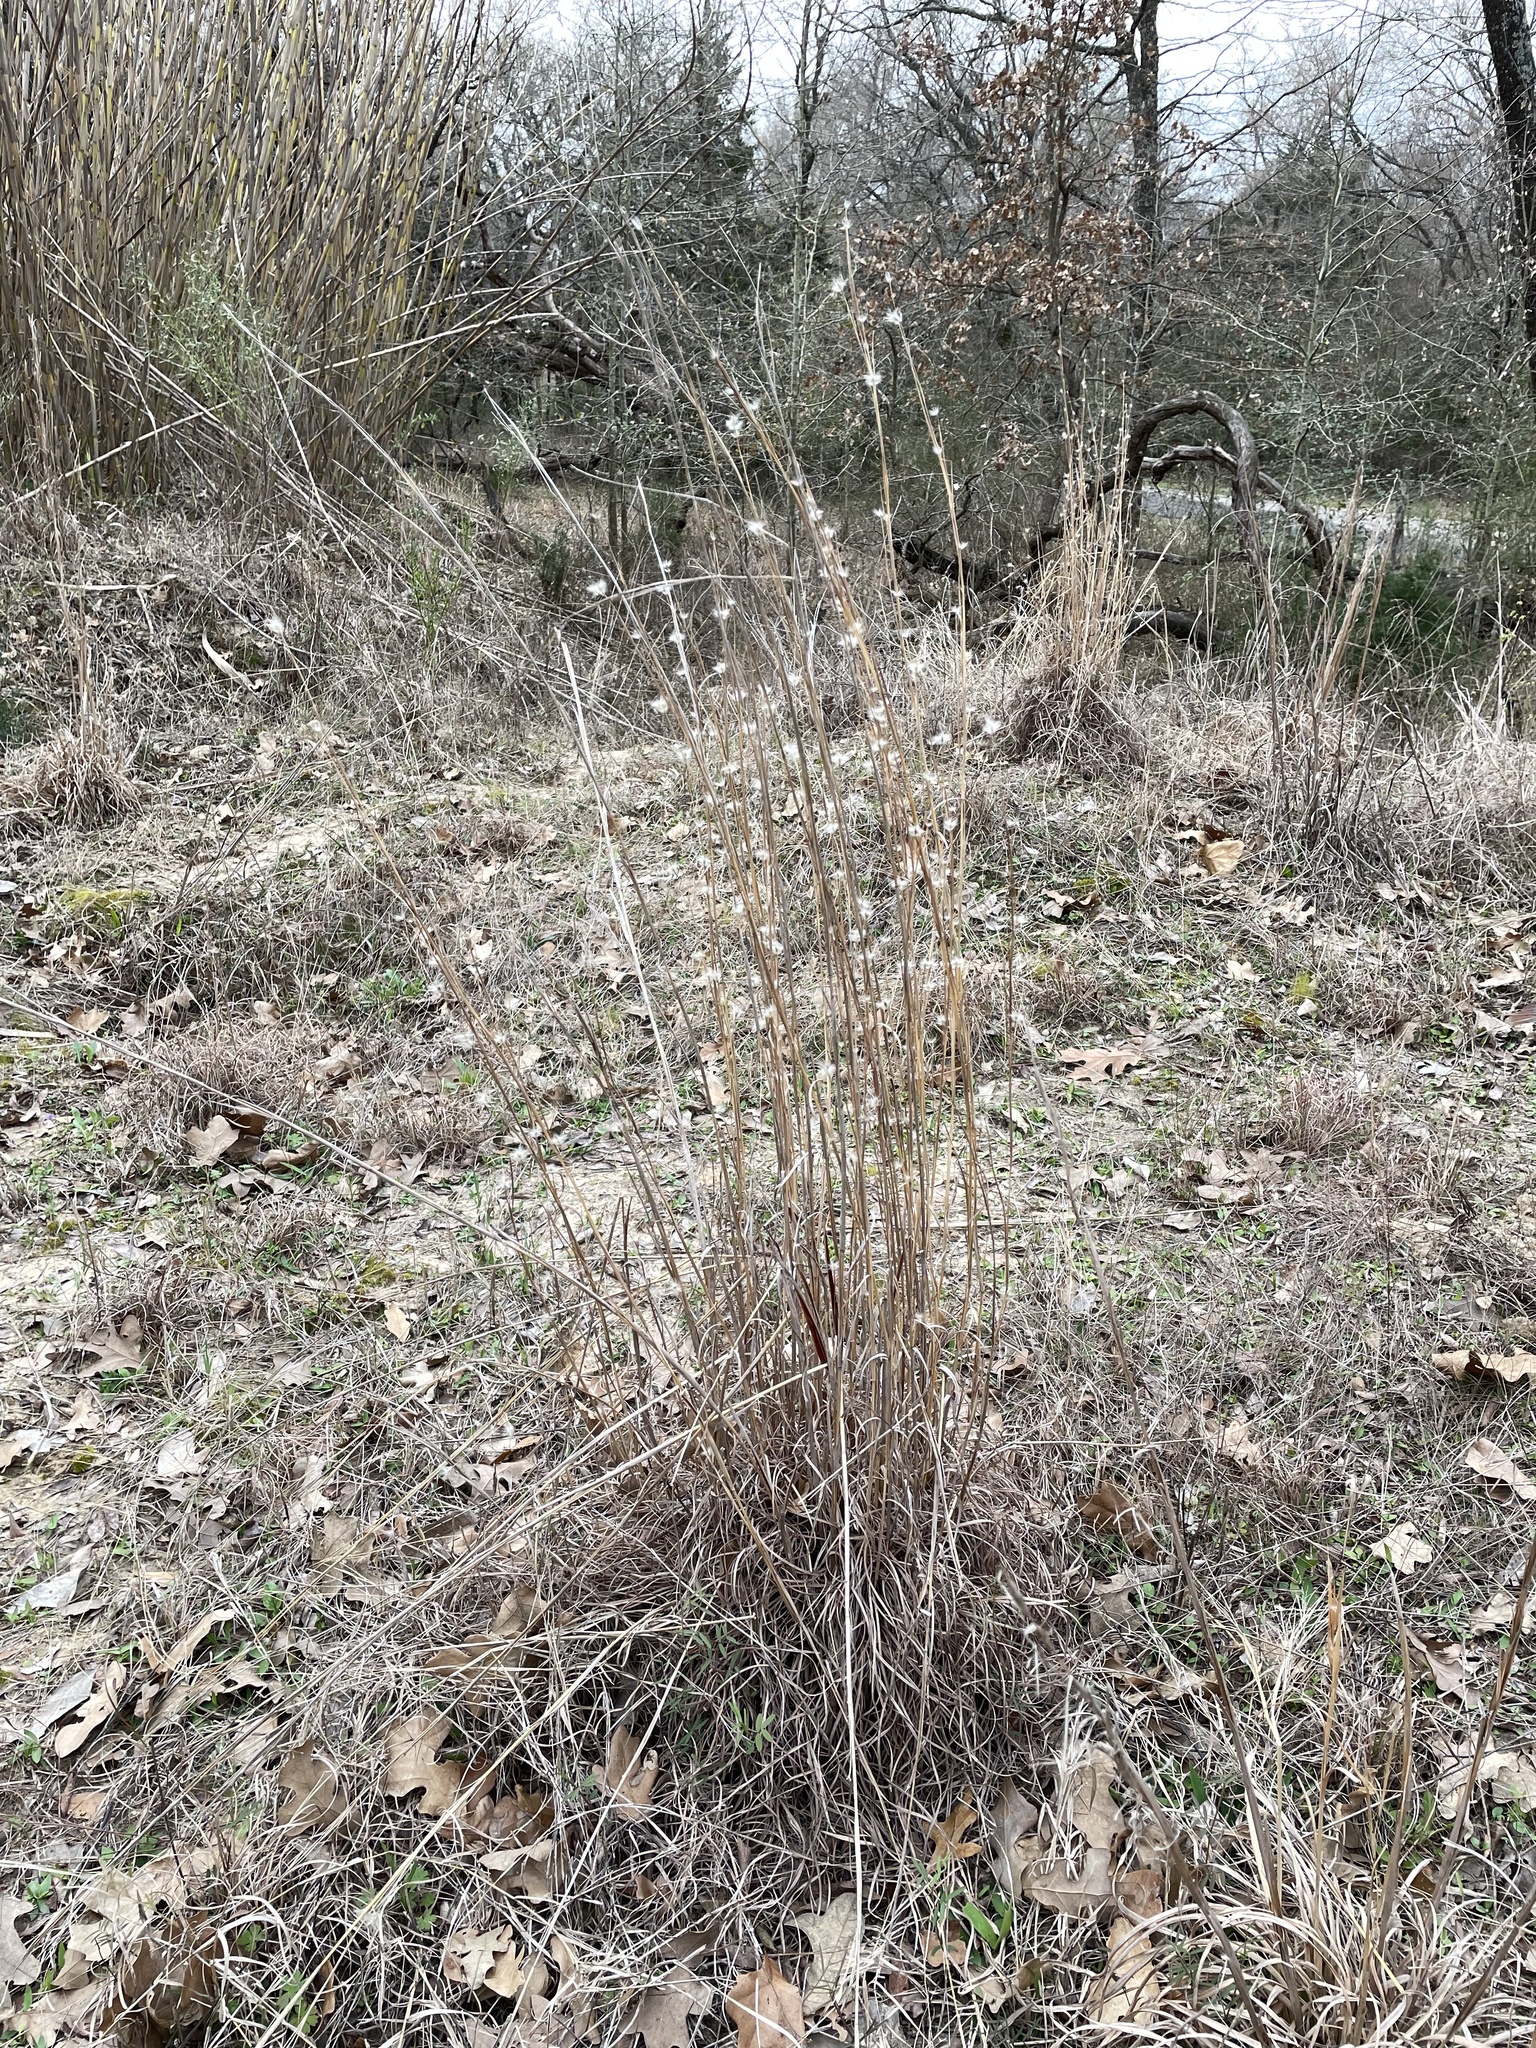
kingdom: Plantae
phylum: Tracheophyta
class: Liliopsida
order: Poales
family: Poaceae
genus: Andropogon
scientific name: Andropogon ternarius
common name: Split bluestem
